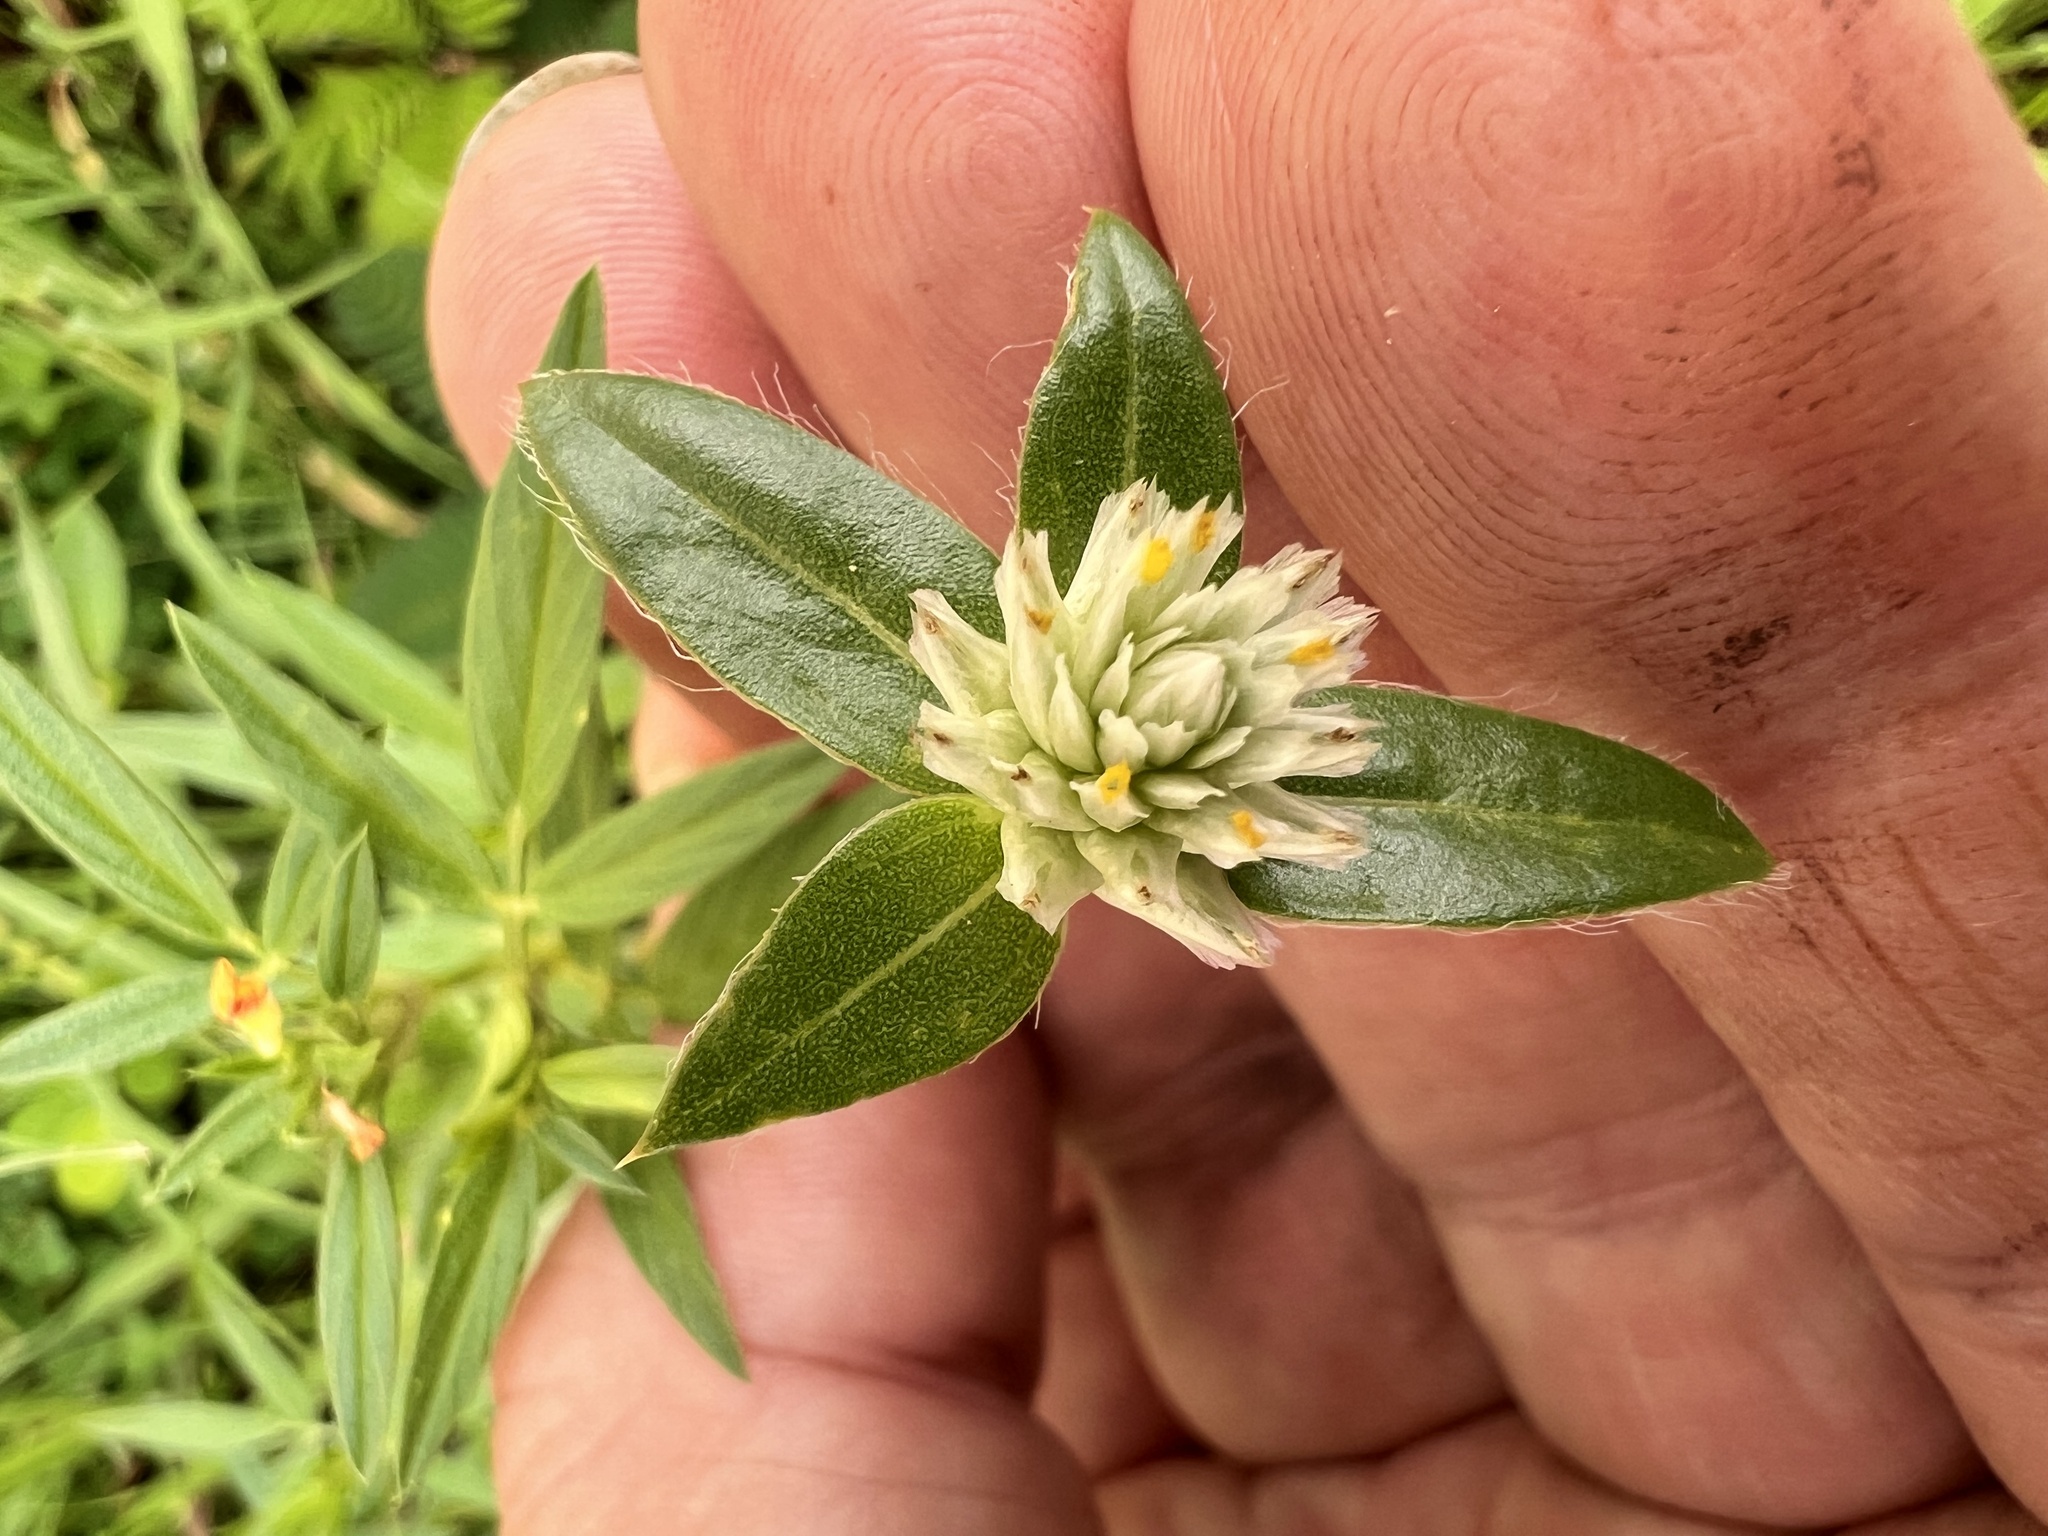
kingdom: Plantae
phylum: Tracheophyta
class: Magnoliopsida
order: Caryophyllales
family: Amaranthaceae
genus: Gomphrena
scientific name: Gomphrena celosioides
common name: Gomphrena-weed
